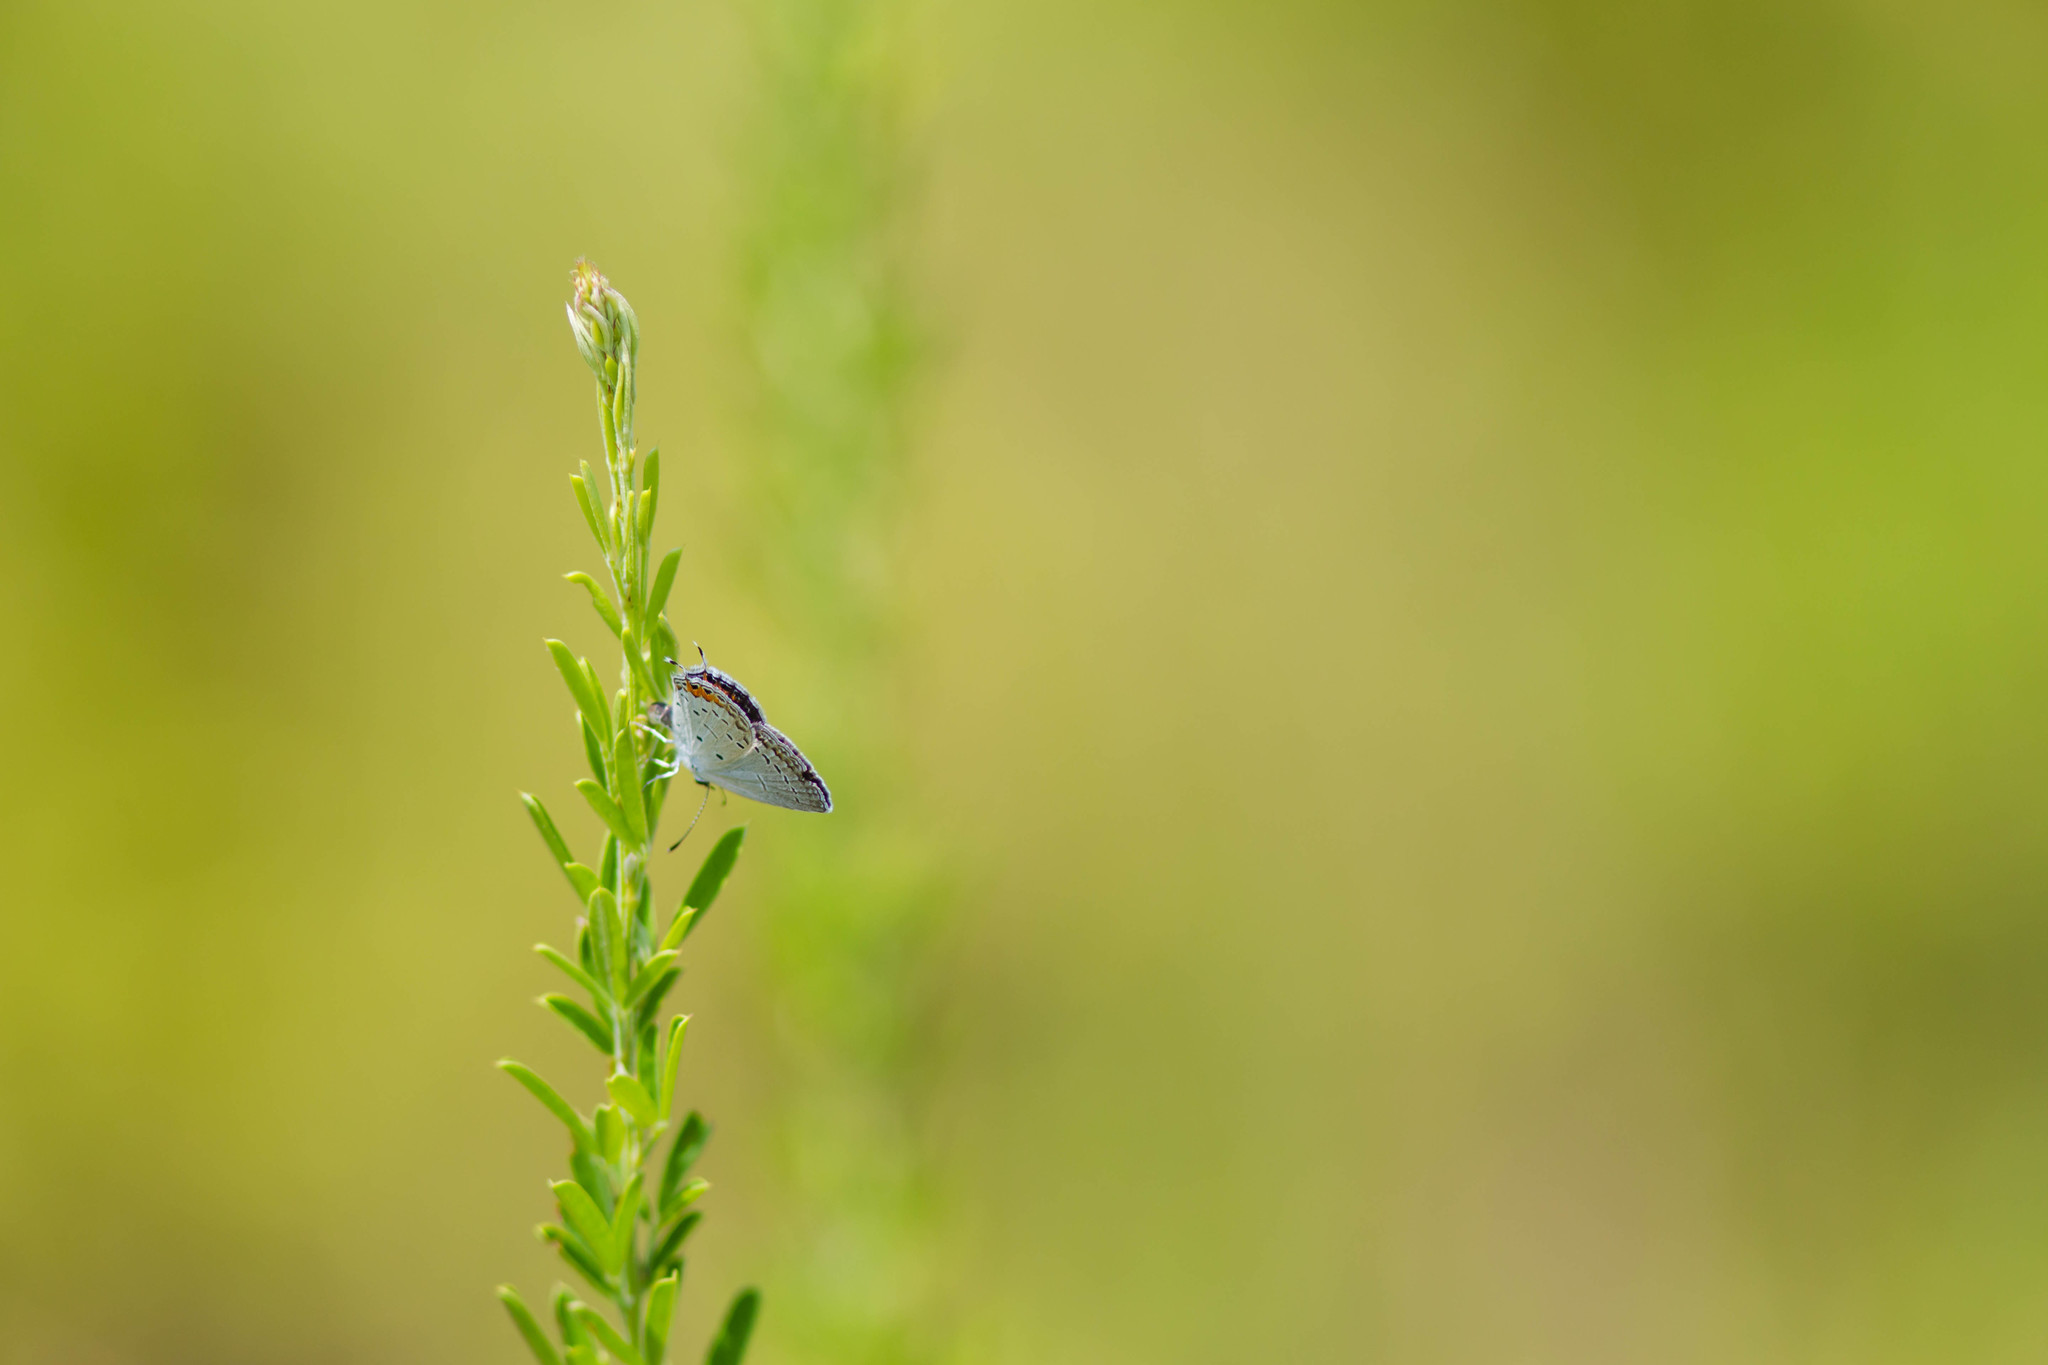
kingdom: Animalia
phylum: Arthropoda
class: Insecta
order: Lepidoptera
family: Lycaenidae
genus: Elkalyce
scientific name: Elkalyce comyntas
